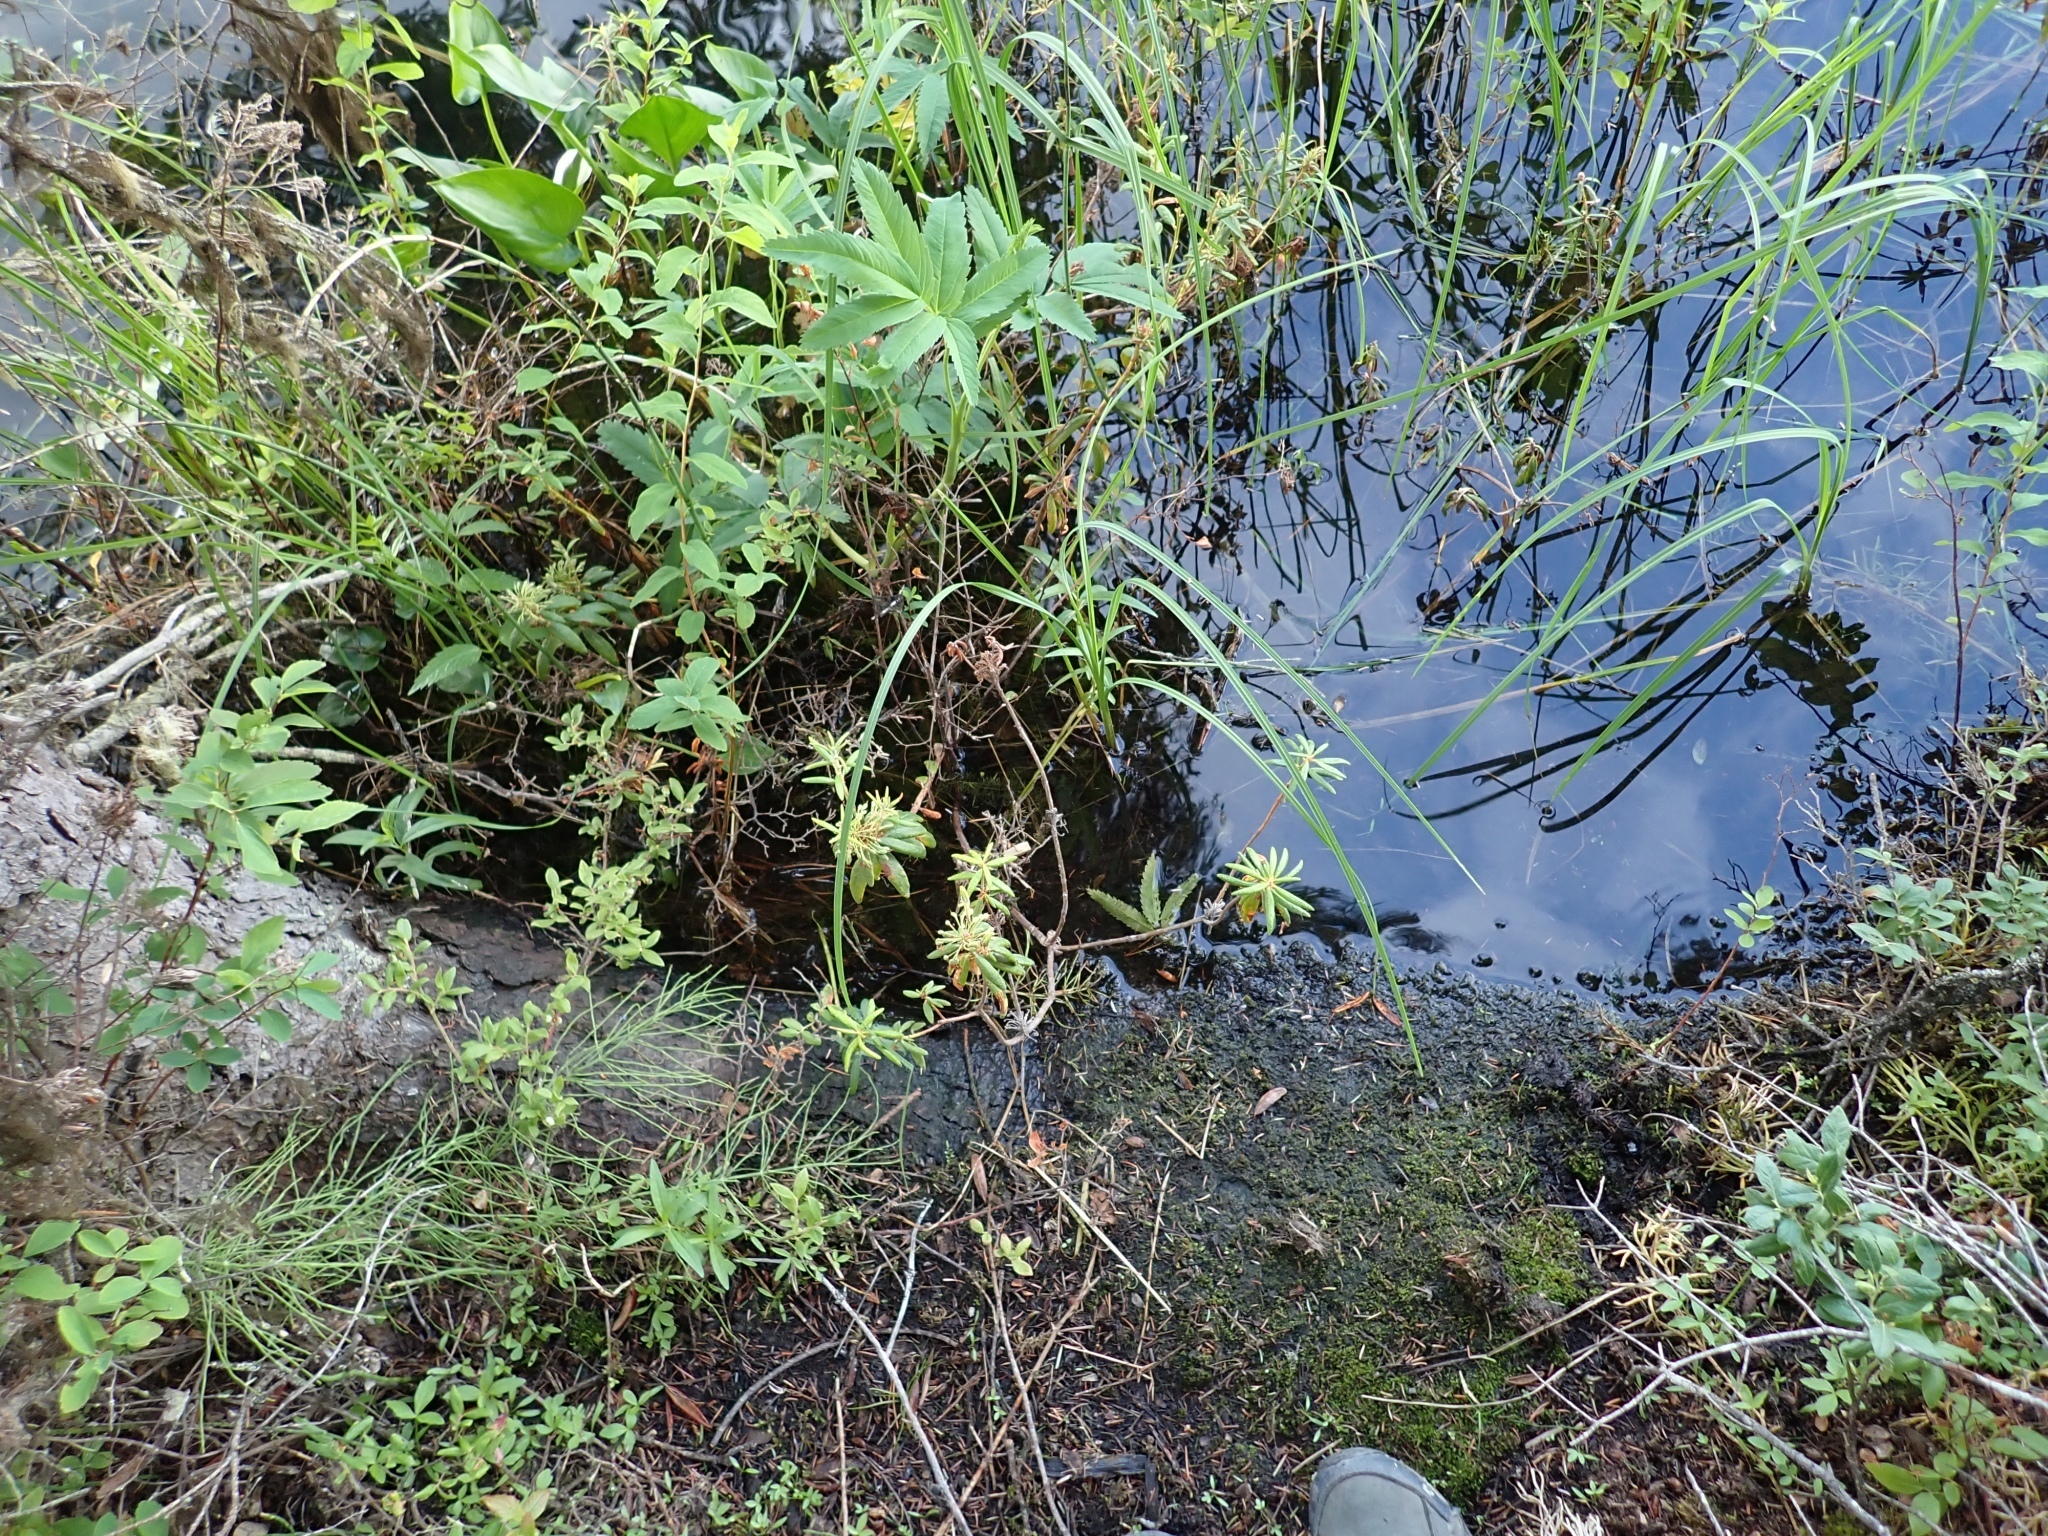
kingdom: Plantae
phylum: Tracheophyta
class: Magnoliopsida
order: Ericales
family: Ericaceae
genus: Rhododendron
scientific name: Rhododendron groenlandicum
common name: Bog labrador tea
